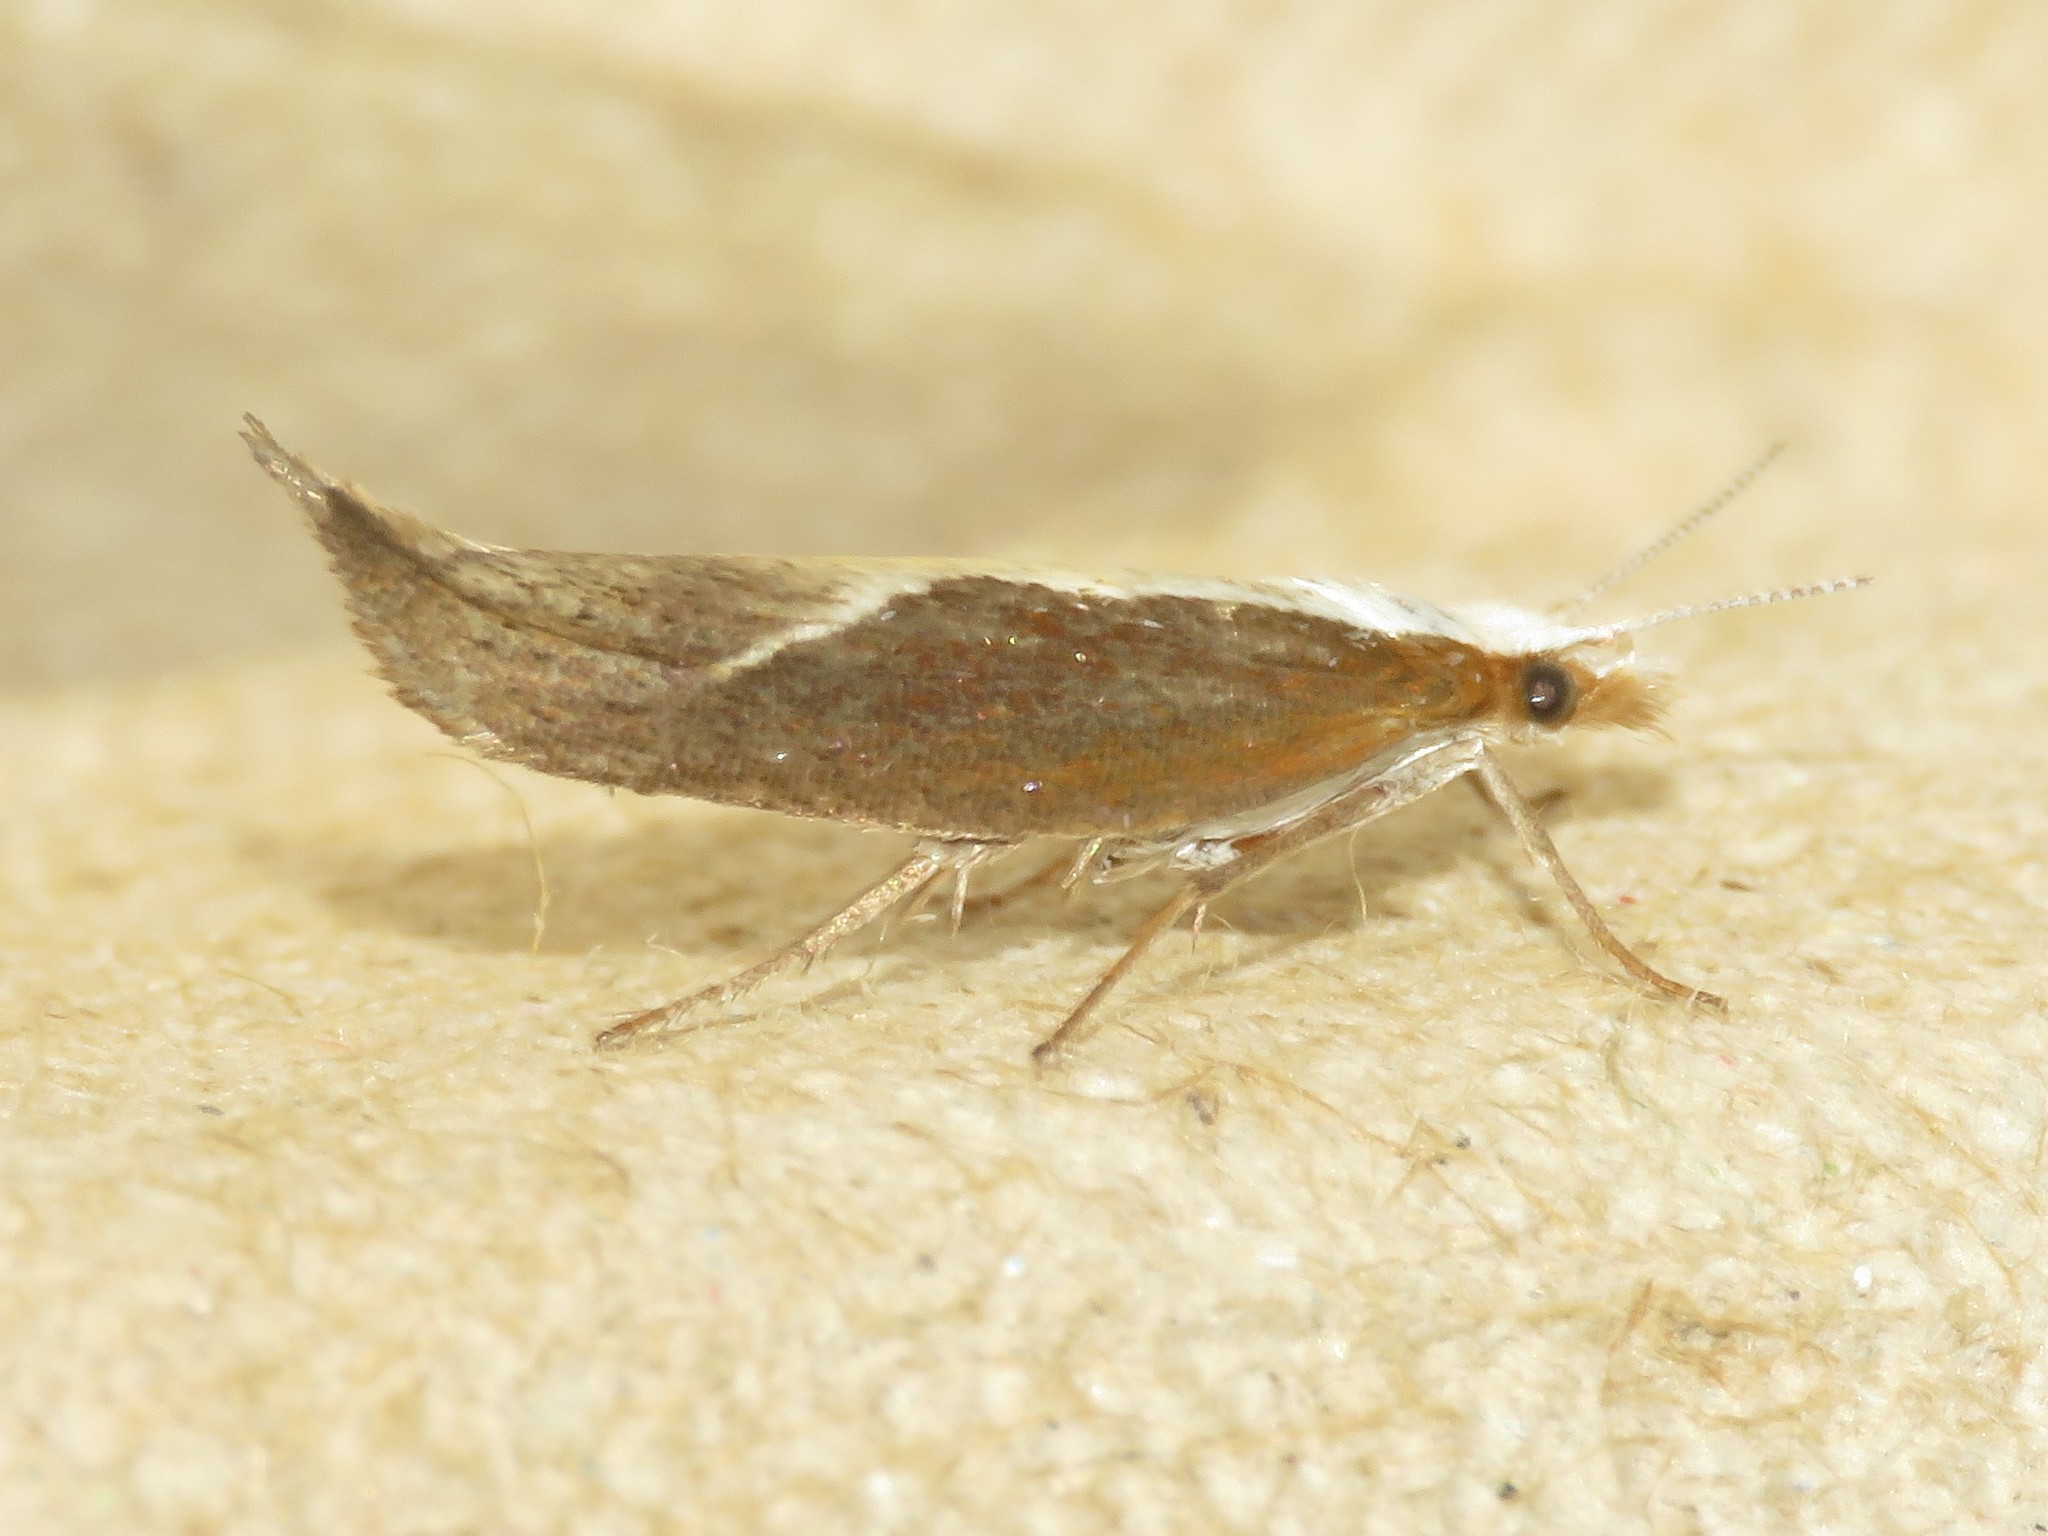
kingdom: Animalia
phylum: Arthropoda
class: Insecta
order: Lepidoptera
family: Ypsolophidae
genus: Ypsolopha
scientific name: Ypsolopha dentella
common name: Honeysuckle moth
